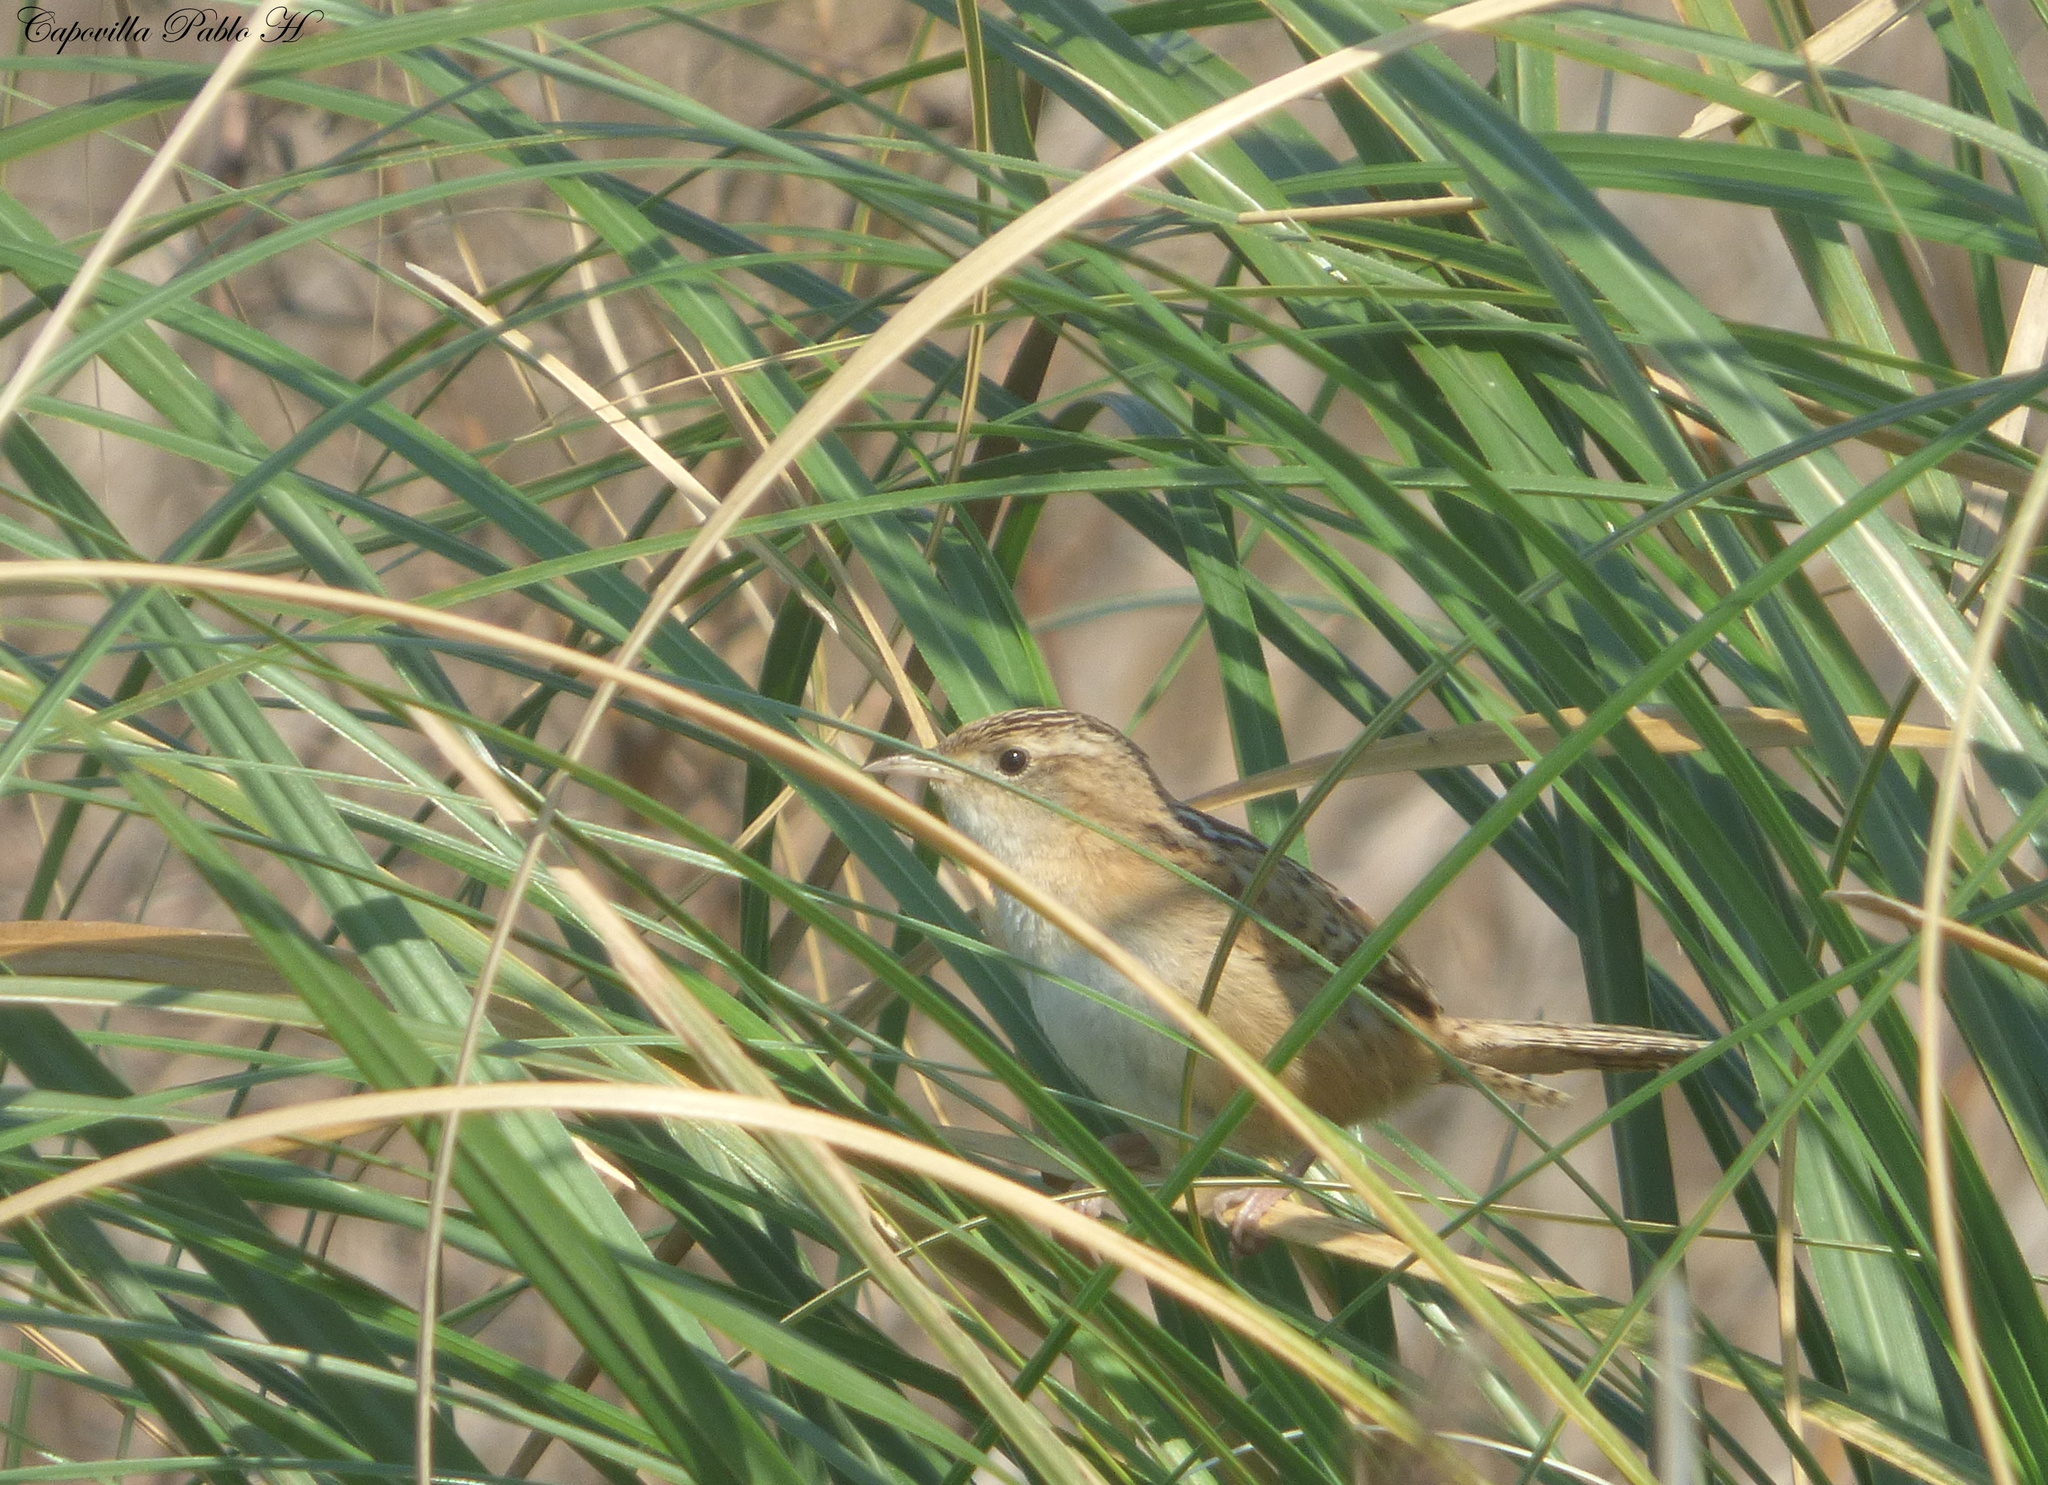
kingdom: Animalia
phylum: Chordata
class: Aves
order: Passeriformes
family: Troglodytidae
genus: Cistothorus
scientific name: Cistothorus platensis
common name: Sedge wren
